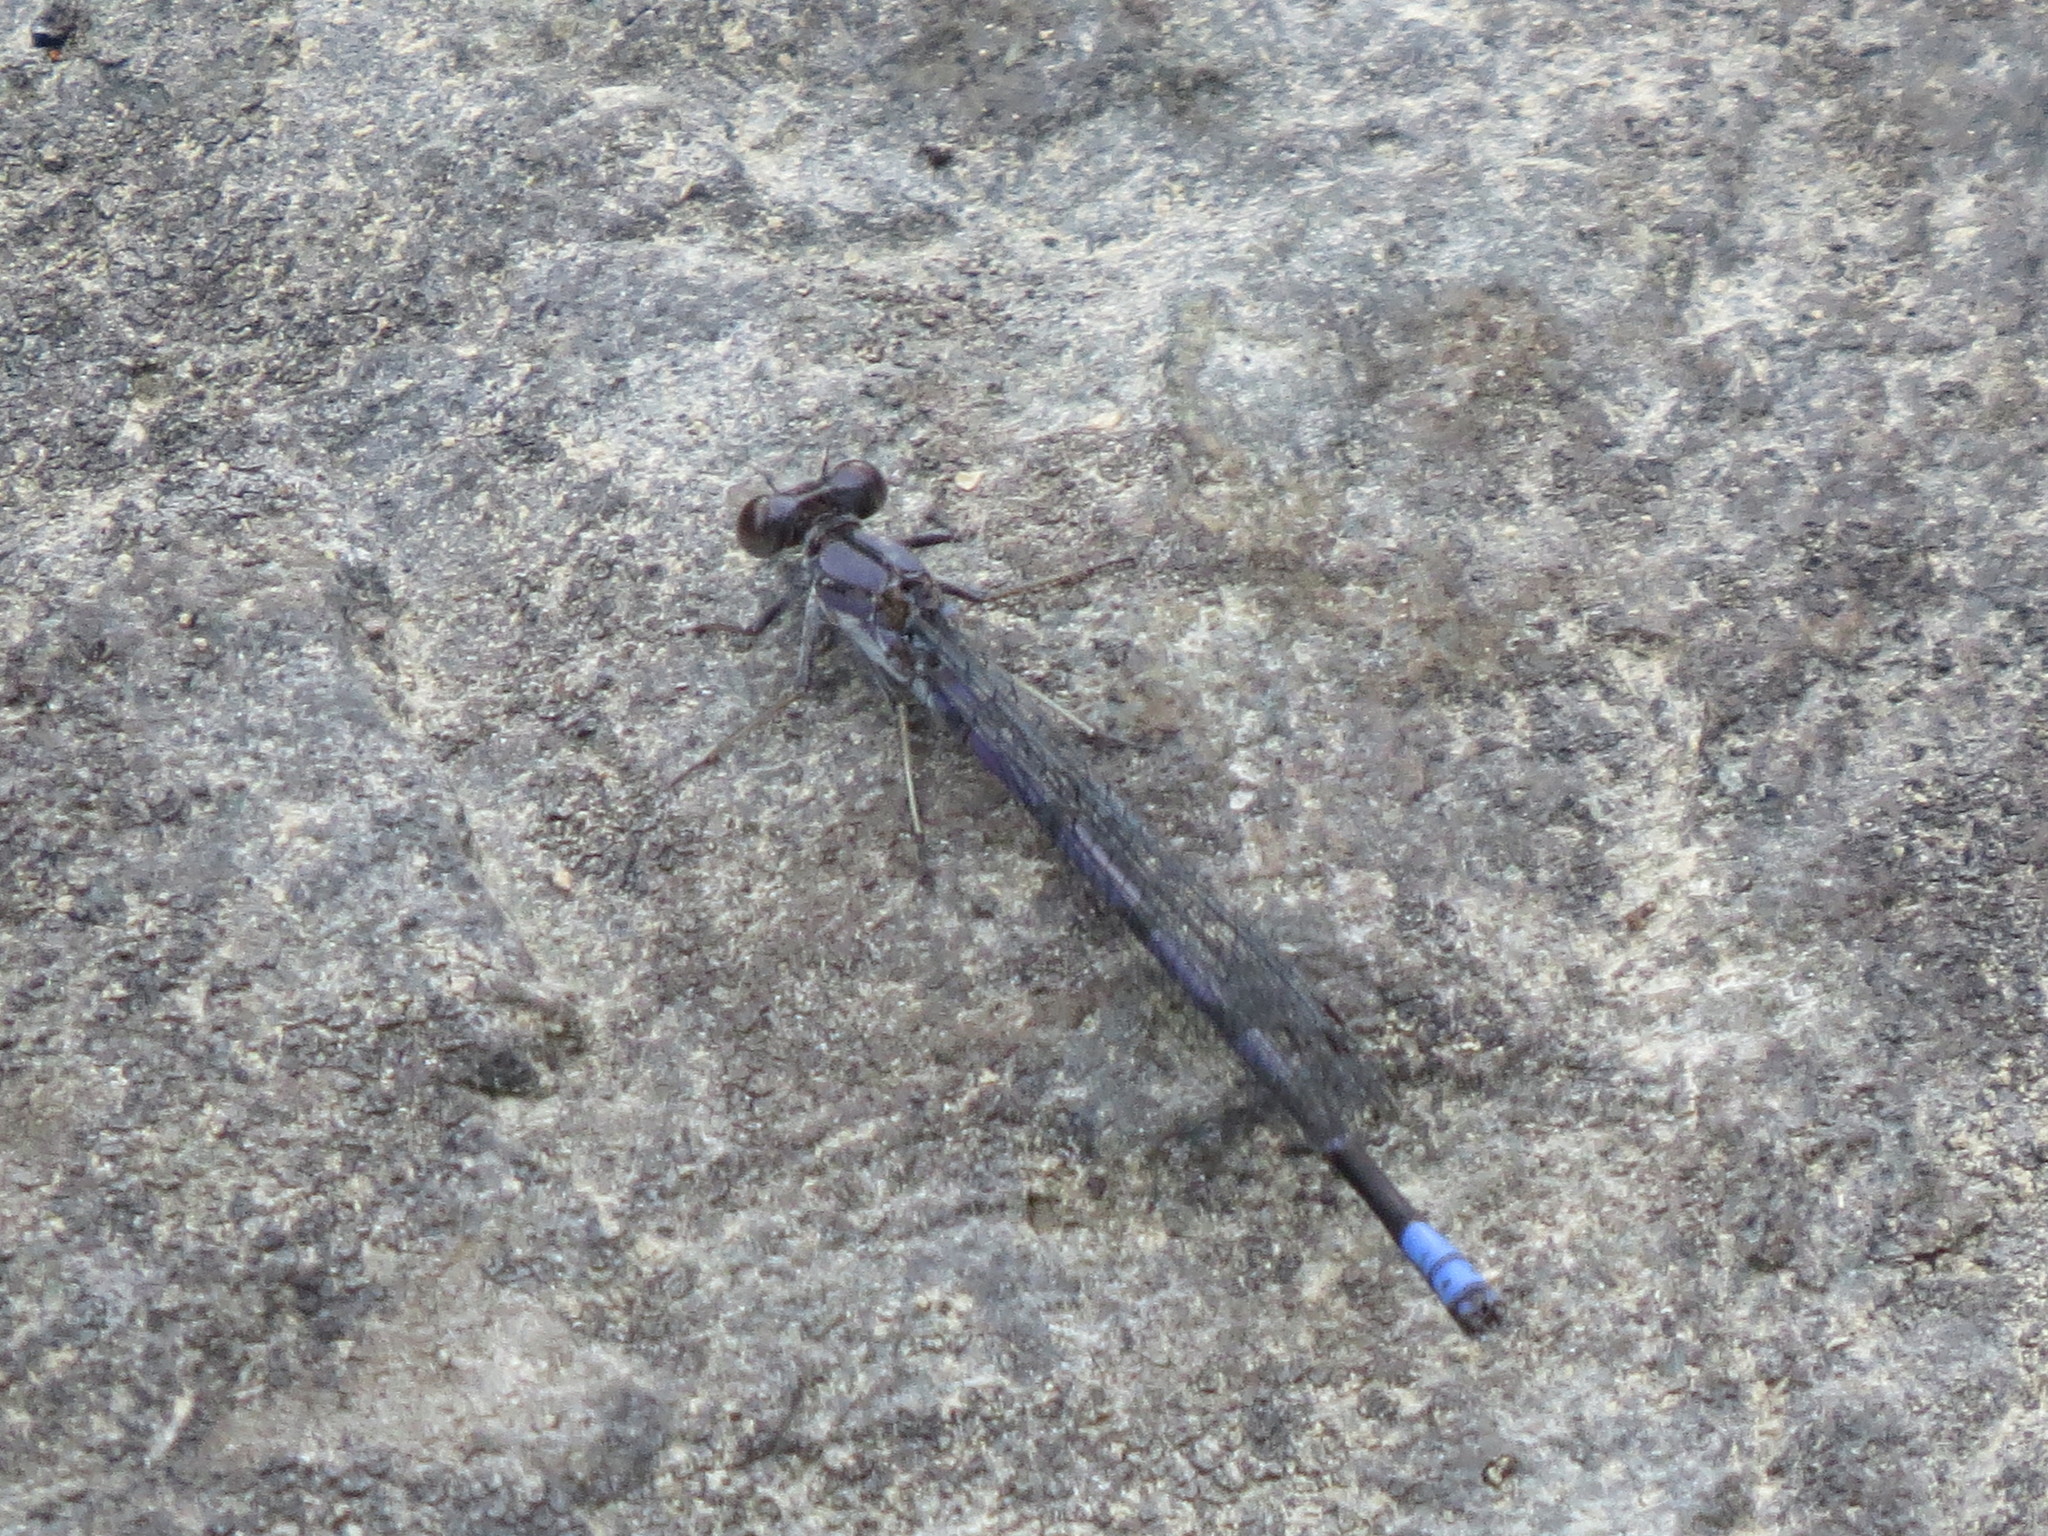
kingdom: Animalia
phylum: Arthropoda
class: Insecta
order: Odonata
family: Coenagrionidae
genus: Argia
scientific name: Argia emma
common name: Emma's dancer
